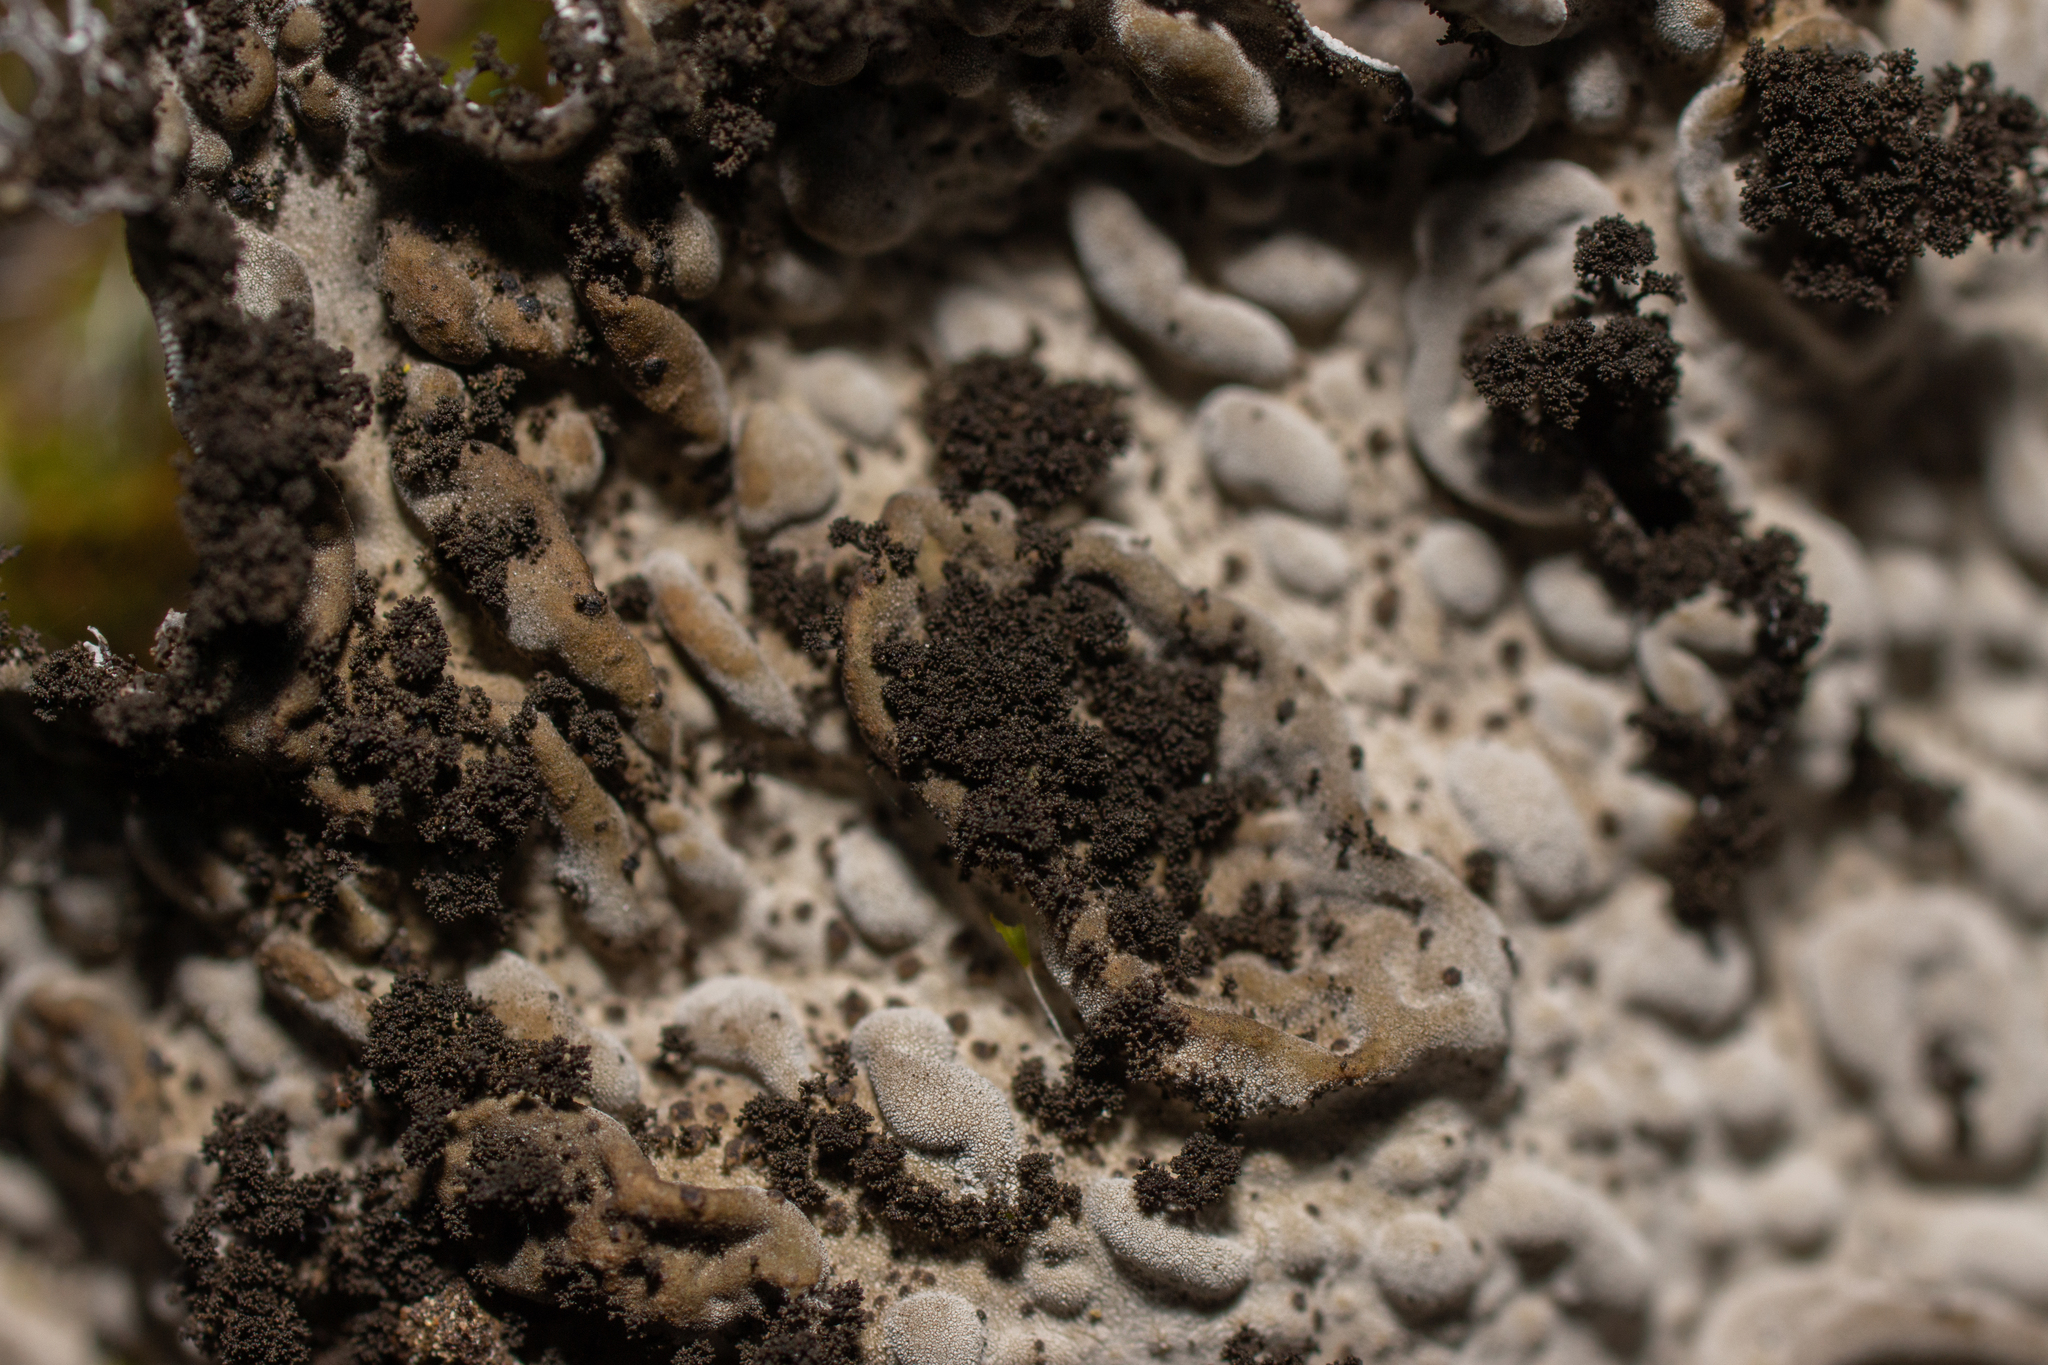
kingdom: Fungi
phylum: Ascomycota
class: Lecanoromycetes
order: Umbilicariales
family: Umbilicariaceae
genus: Lasallia
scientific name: Lasallia pustulata
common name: Blistered toadskin lichen
